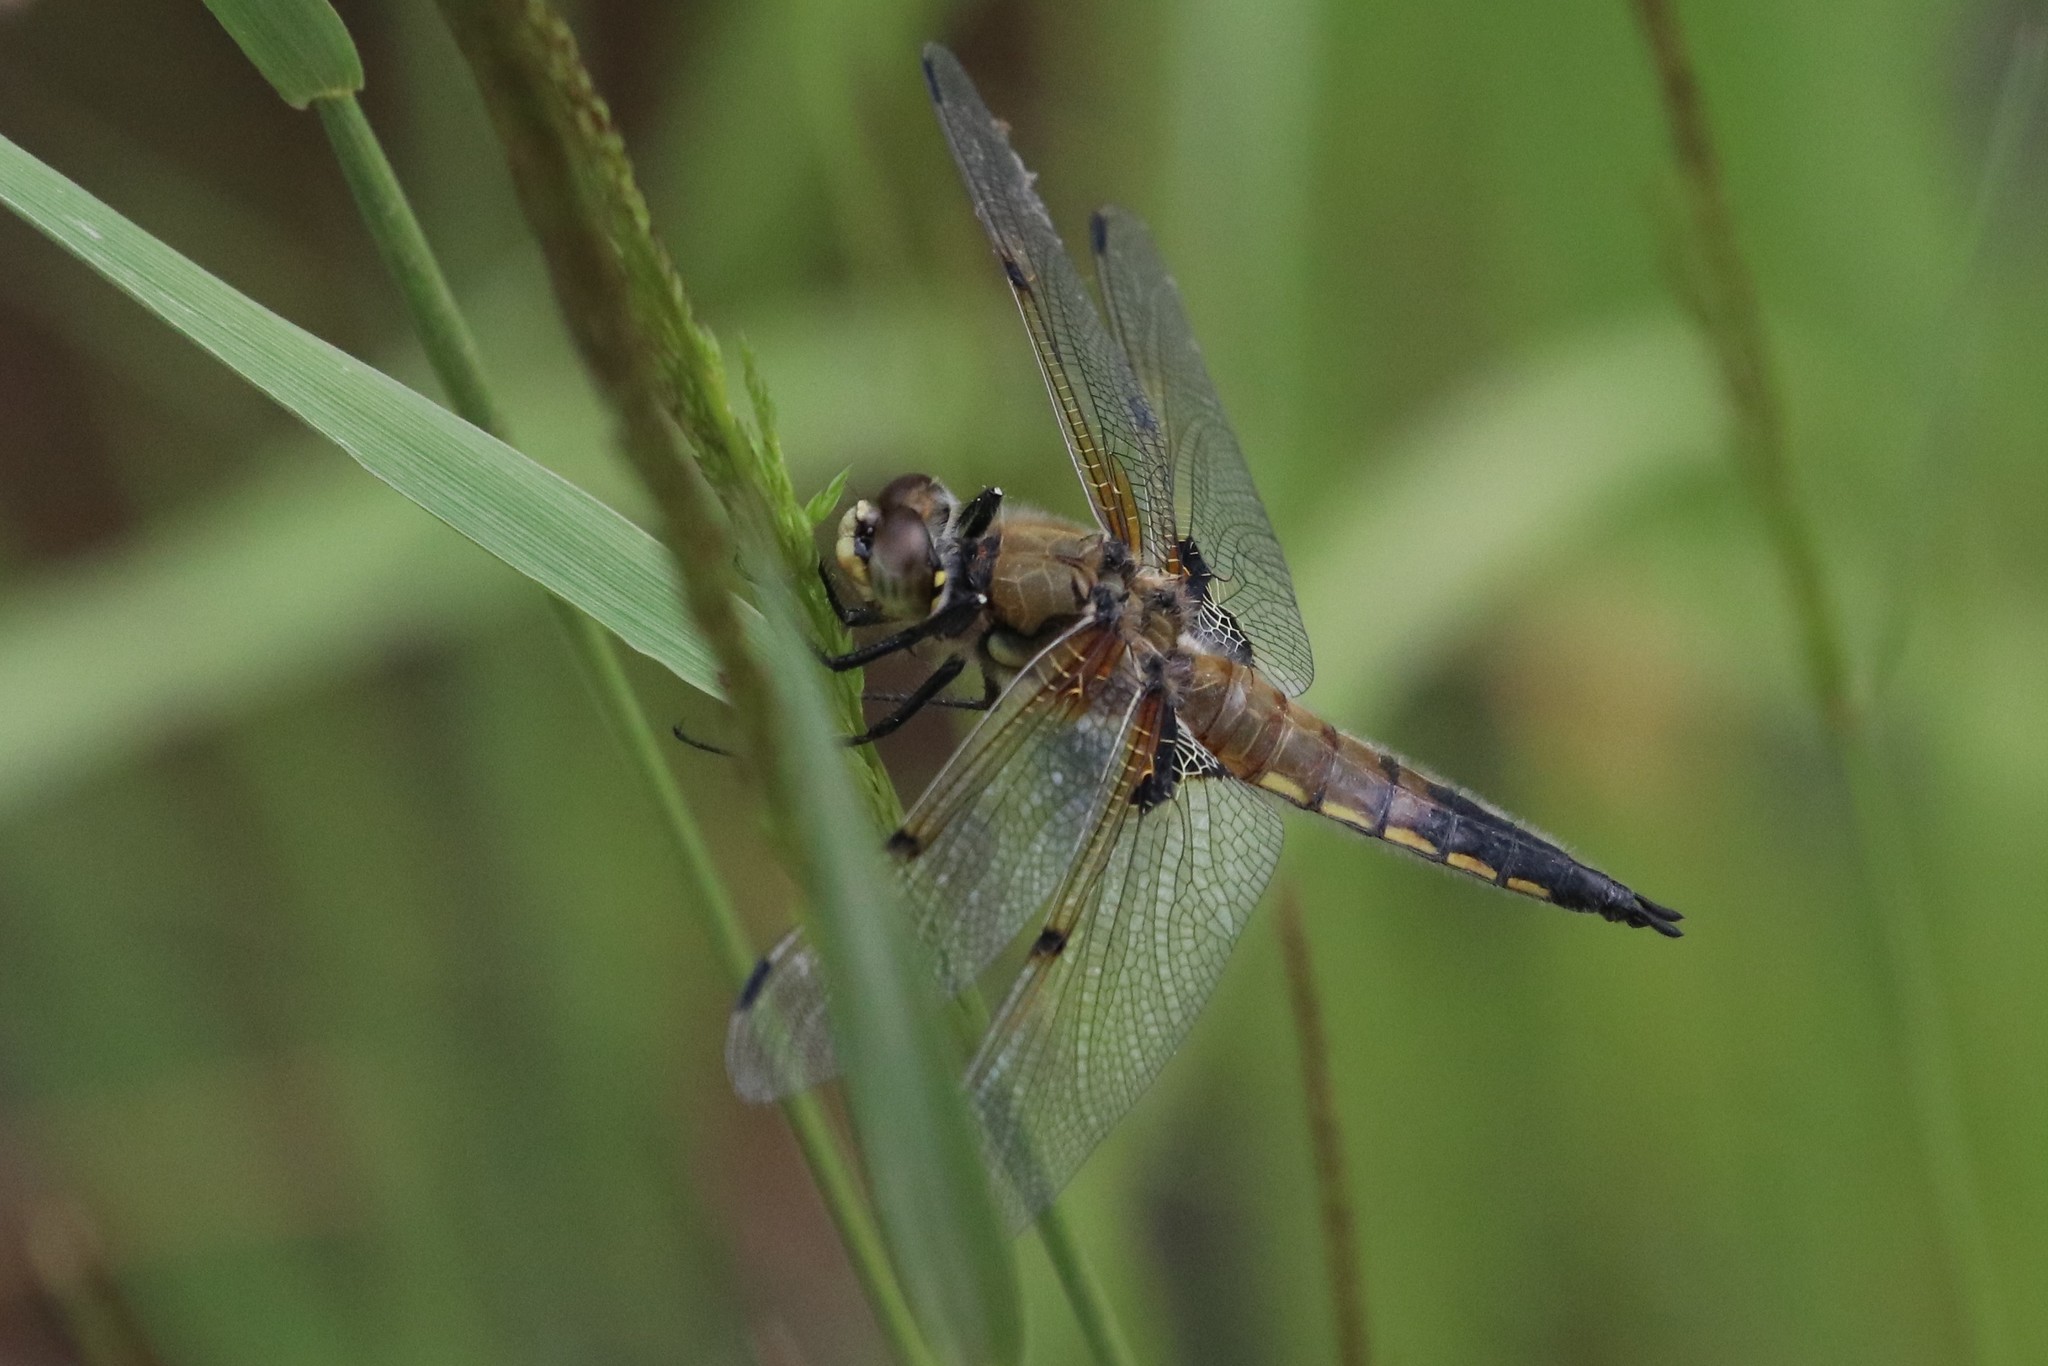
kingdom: Animalia
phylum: Arthropoda
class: Insecta
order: Odonata
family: Libellulidae
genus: Libellula
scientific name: Libellula quadrimaculata
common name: Four-spotted chaser
